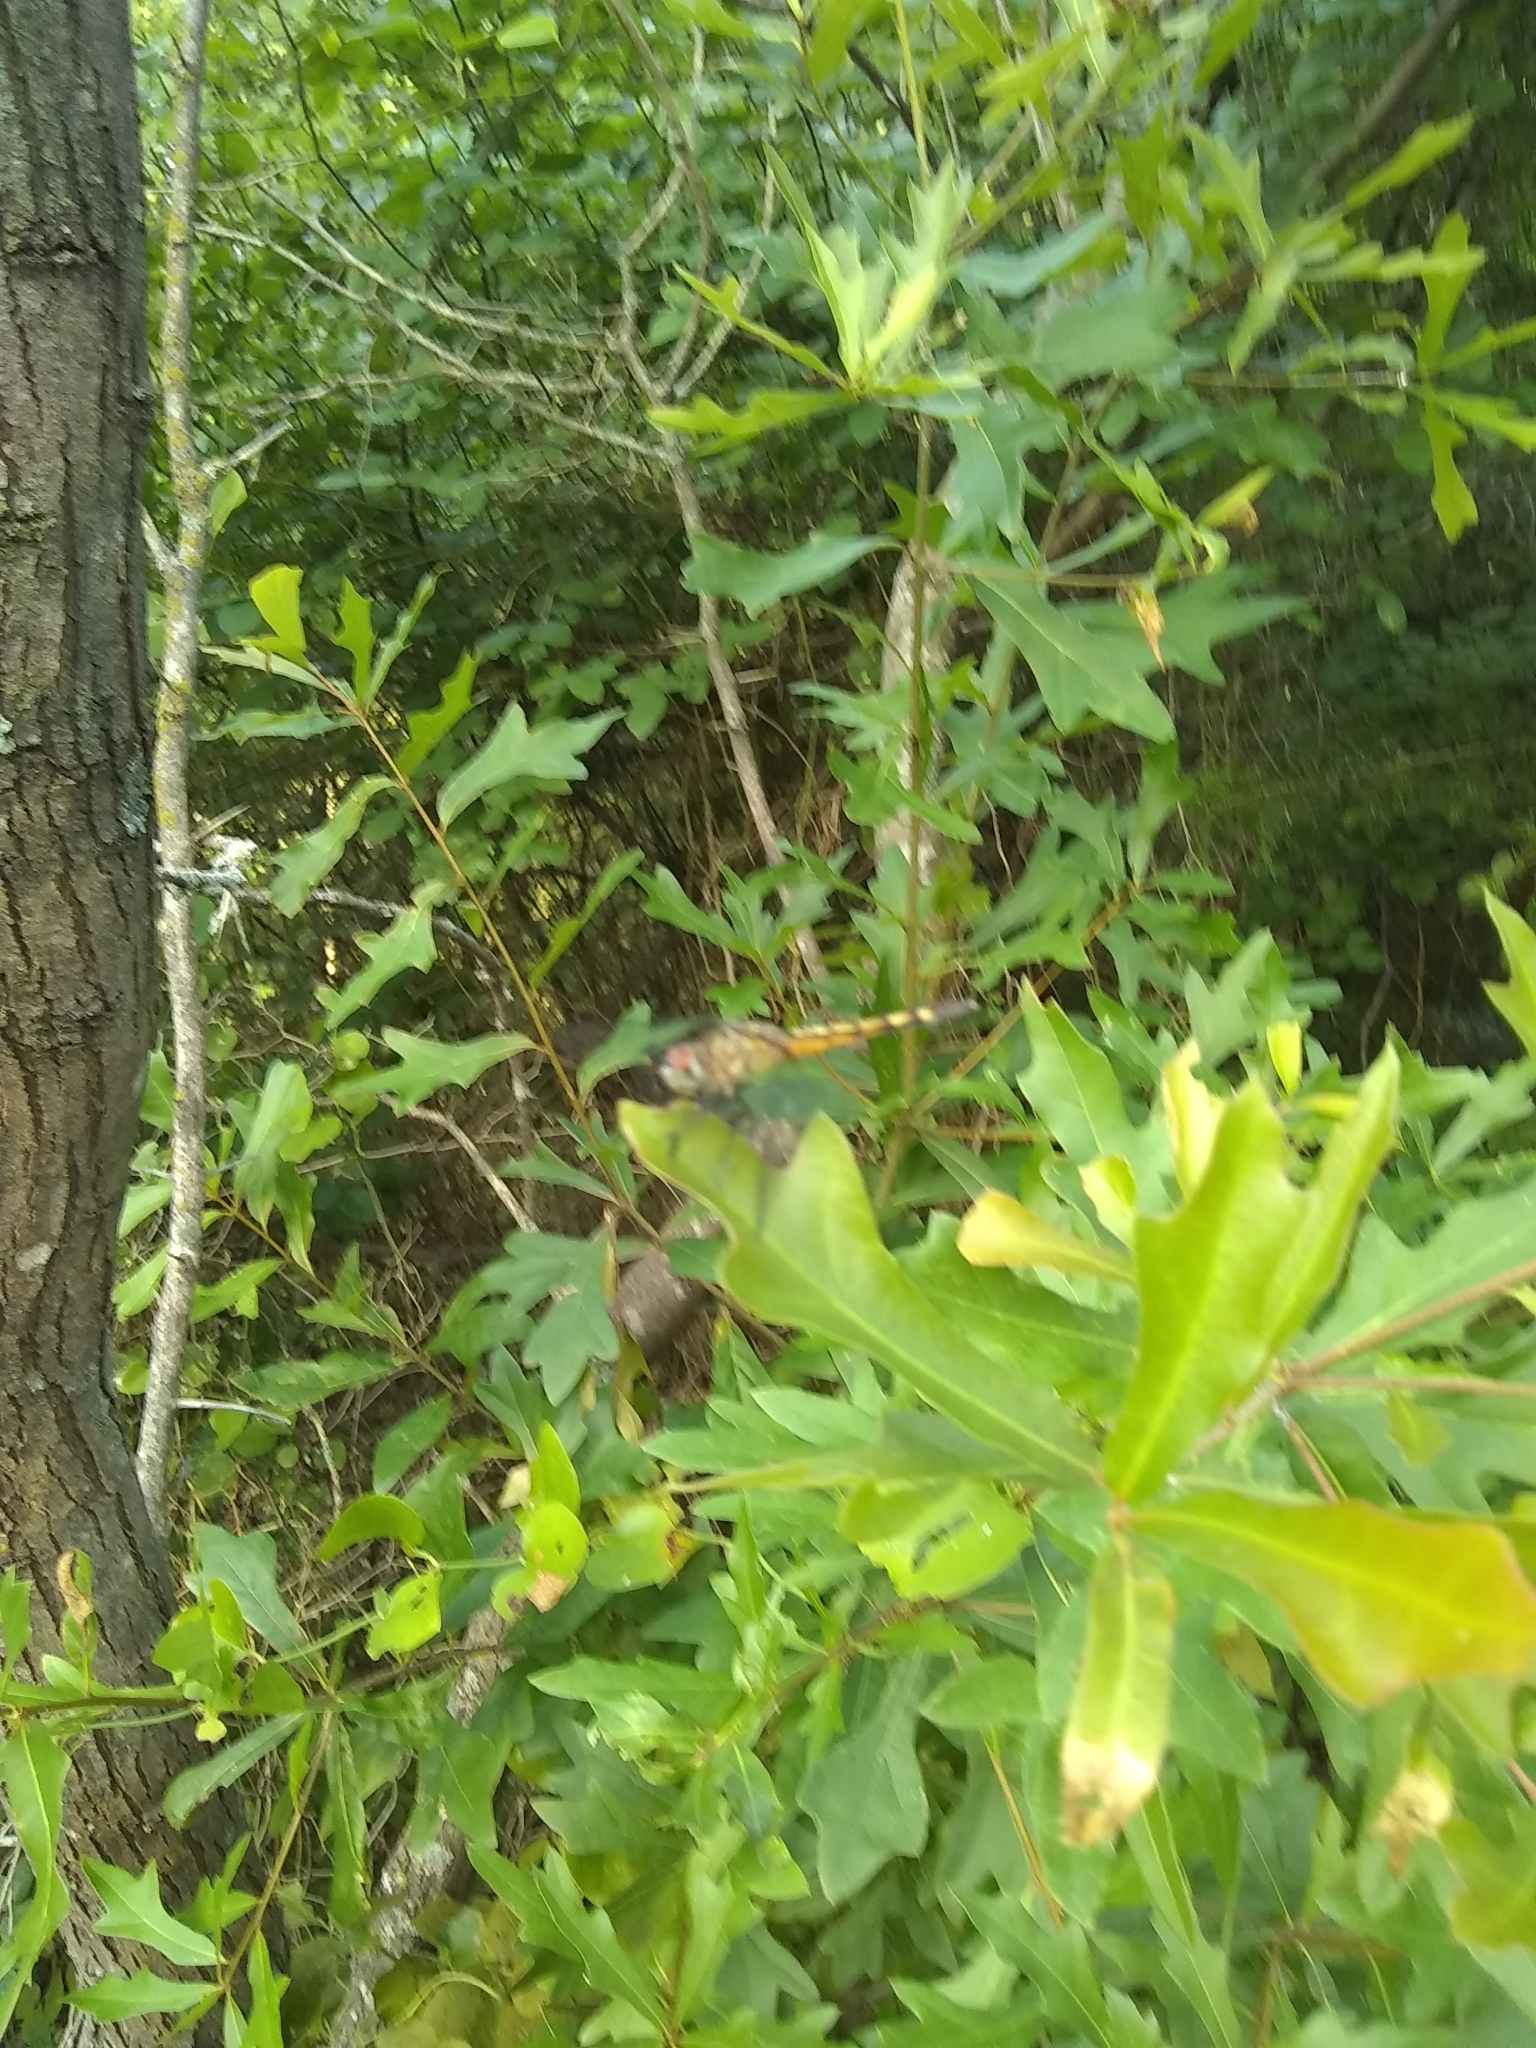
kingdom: Animalia
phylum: Arthropoda
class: Insecta
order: Odonata
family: Libellulidae
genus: Pachydiplax
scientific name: Pachydiplax longipennis
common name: Blue dasher
